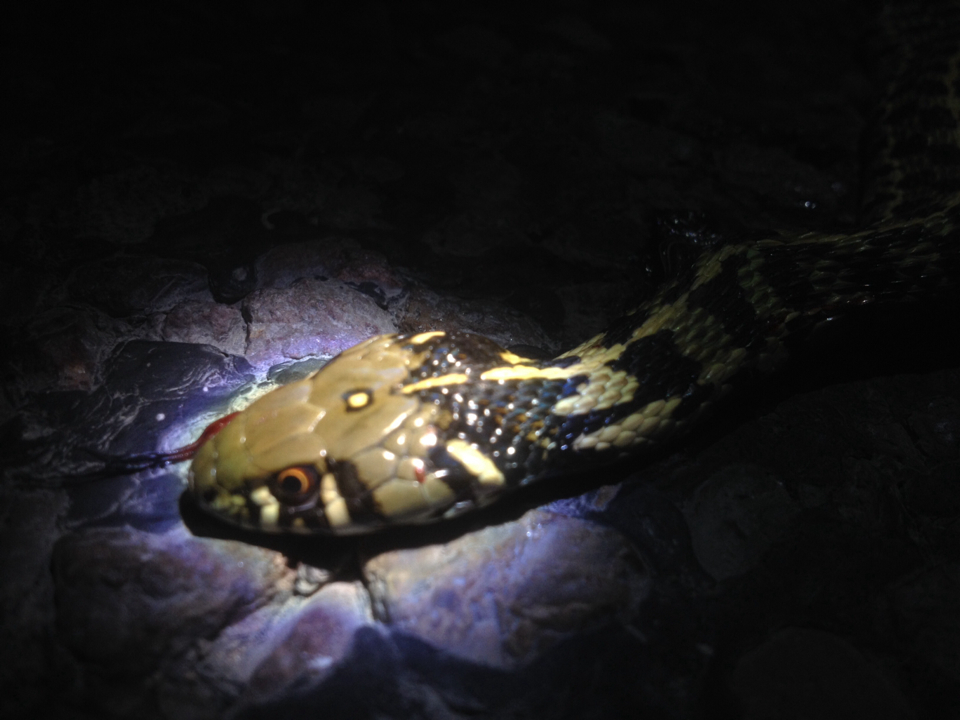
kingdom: Animalia
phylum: Chordata
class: Squamata
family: Colubridae
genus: Thamnophis
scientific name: Thamnophis marcianus
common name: Checkered garter snake
